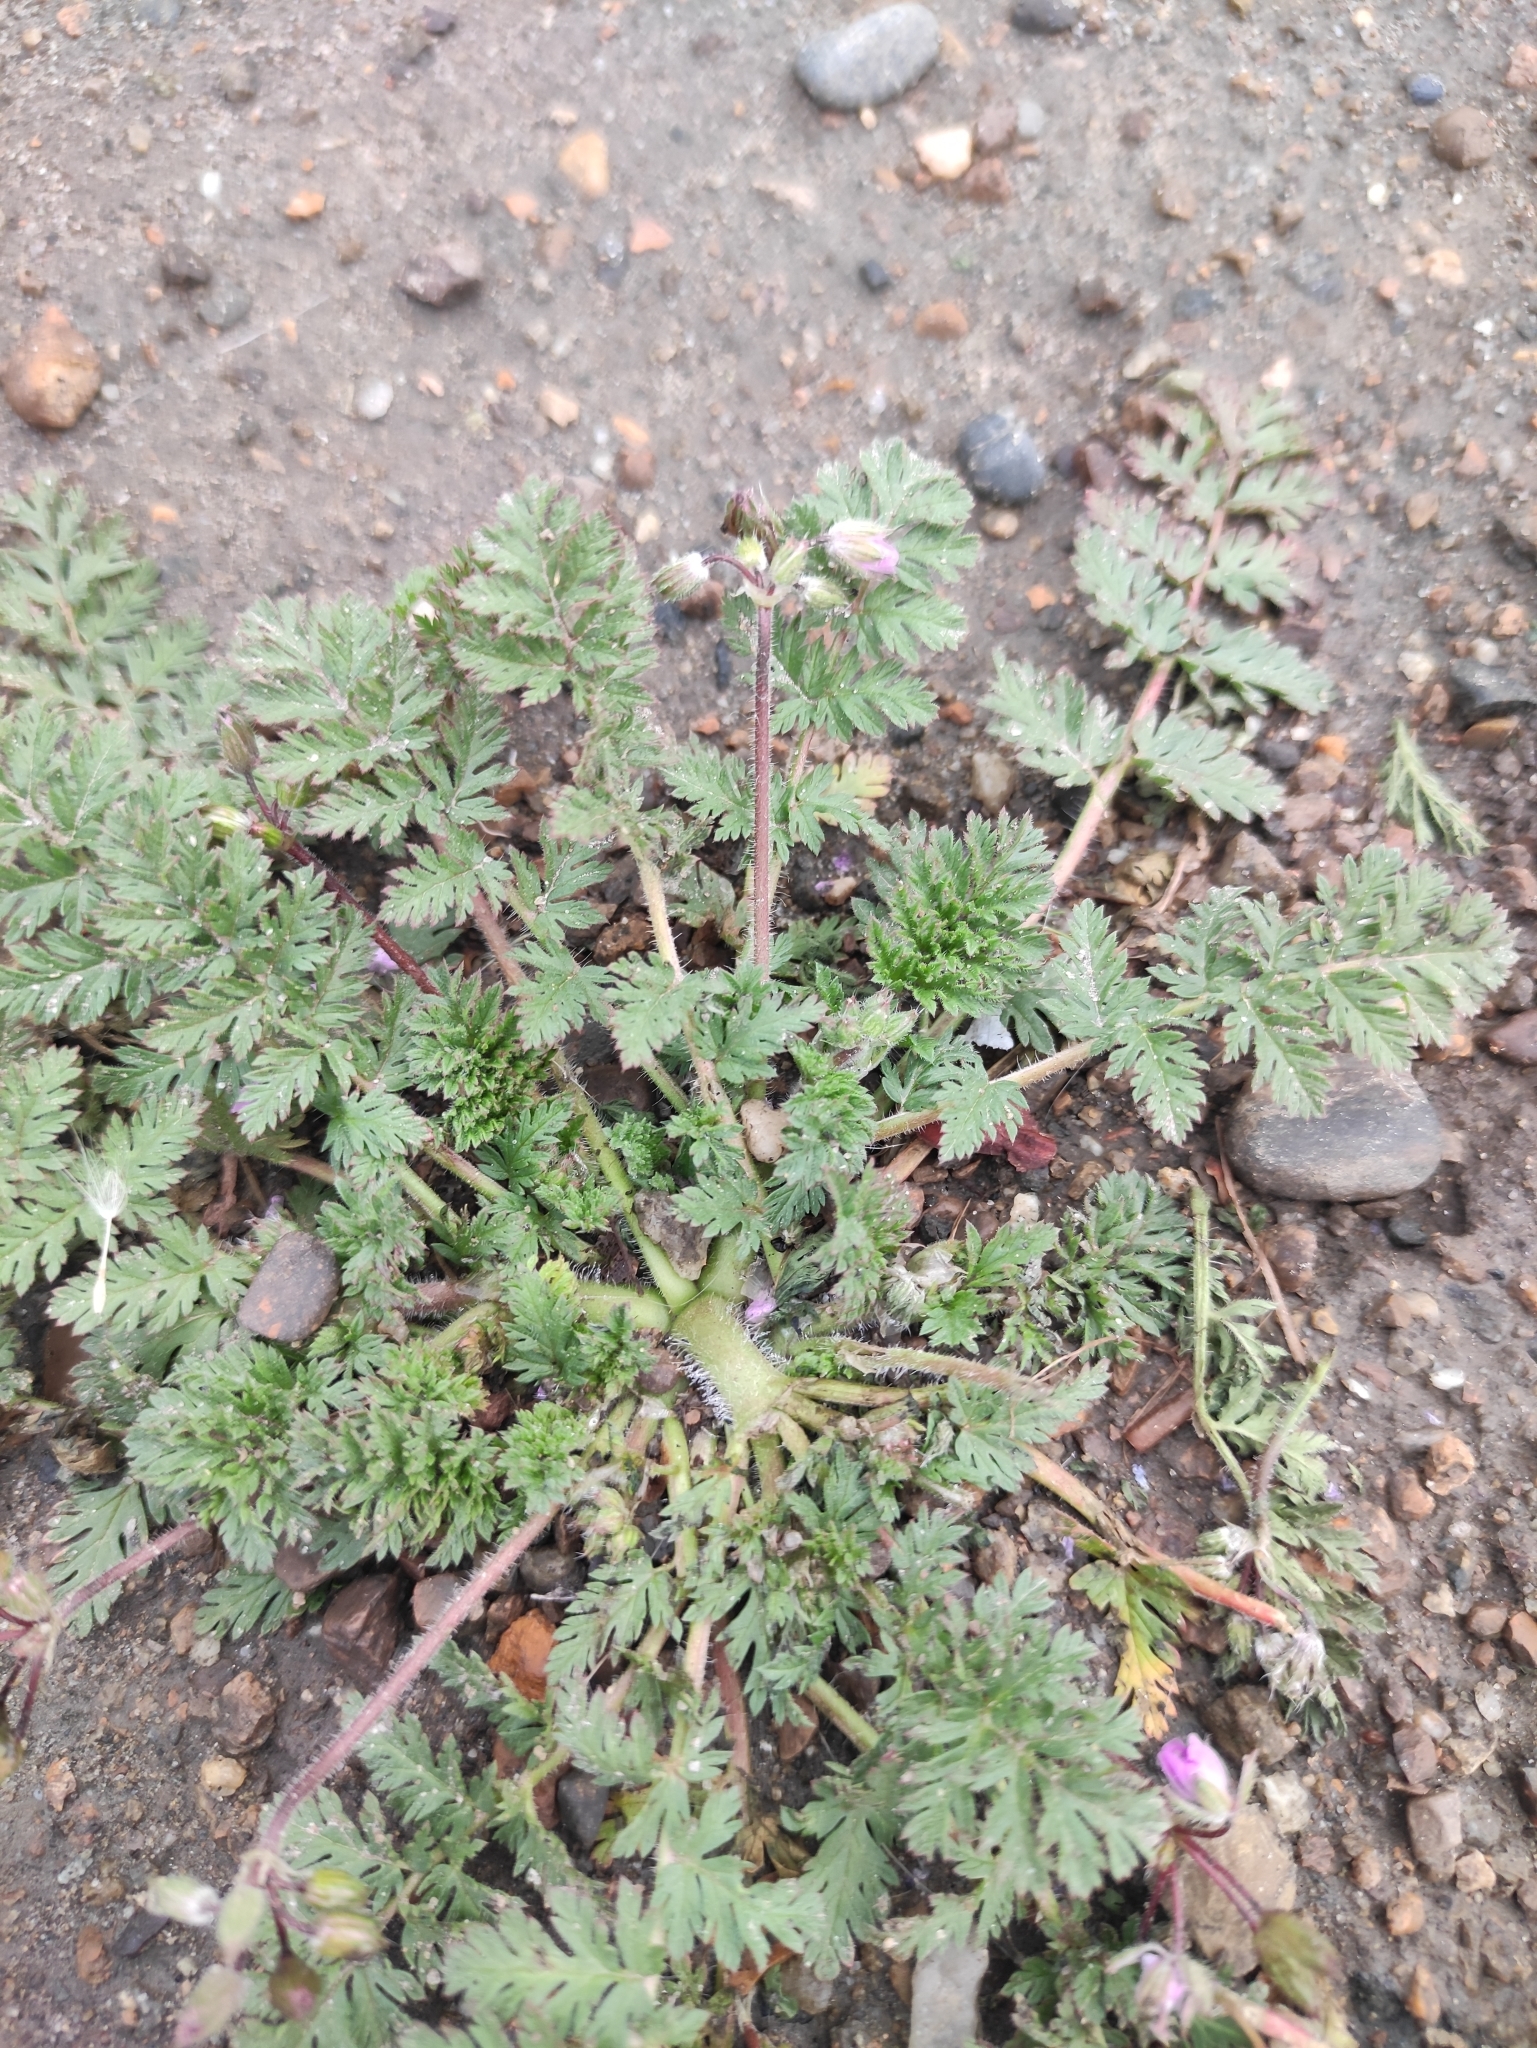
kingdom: Plantae
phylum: Tracheophyta
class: Magnoliopsida
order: Geraniales
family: Geraniaceae
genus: Erodium
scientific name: Erodium cicutarium
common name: Common stork's-bill
